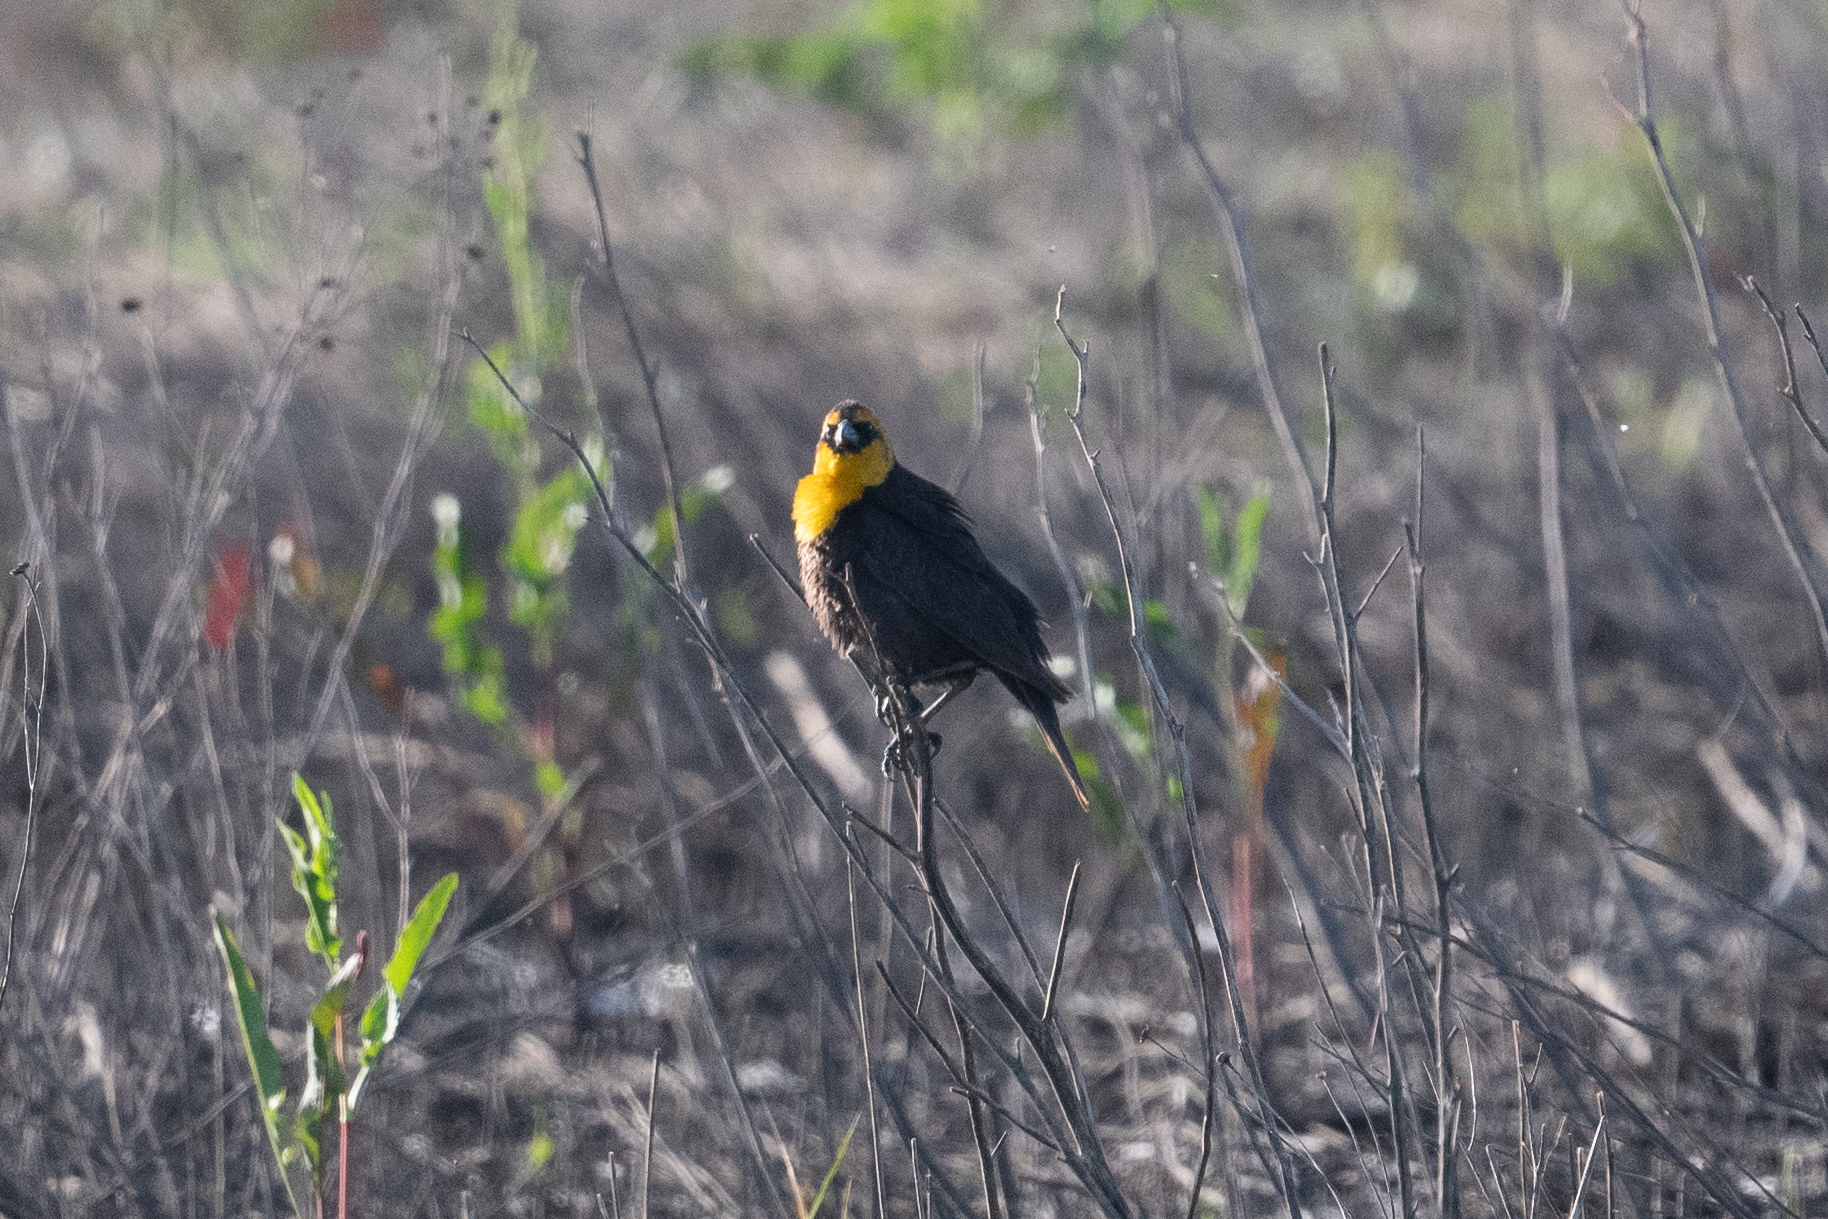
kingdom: Animalia
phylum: Chordata
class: Aves
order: Passeriformes
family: Icteridae
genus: Xanthocephalus
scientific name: Xanthocephalus xanthocephalus
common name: Yellow-headed blackbird
